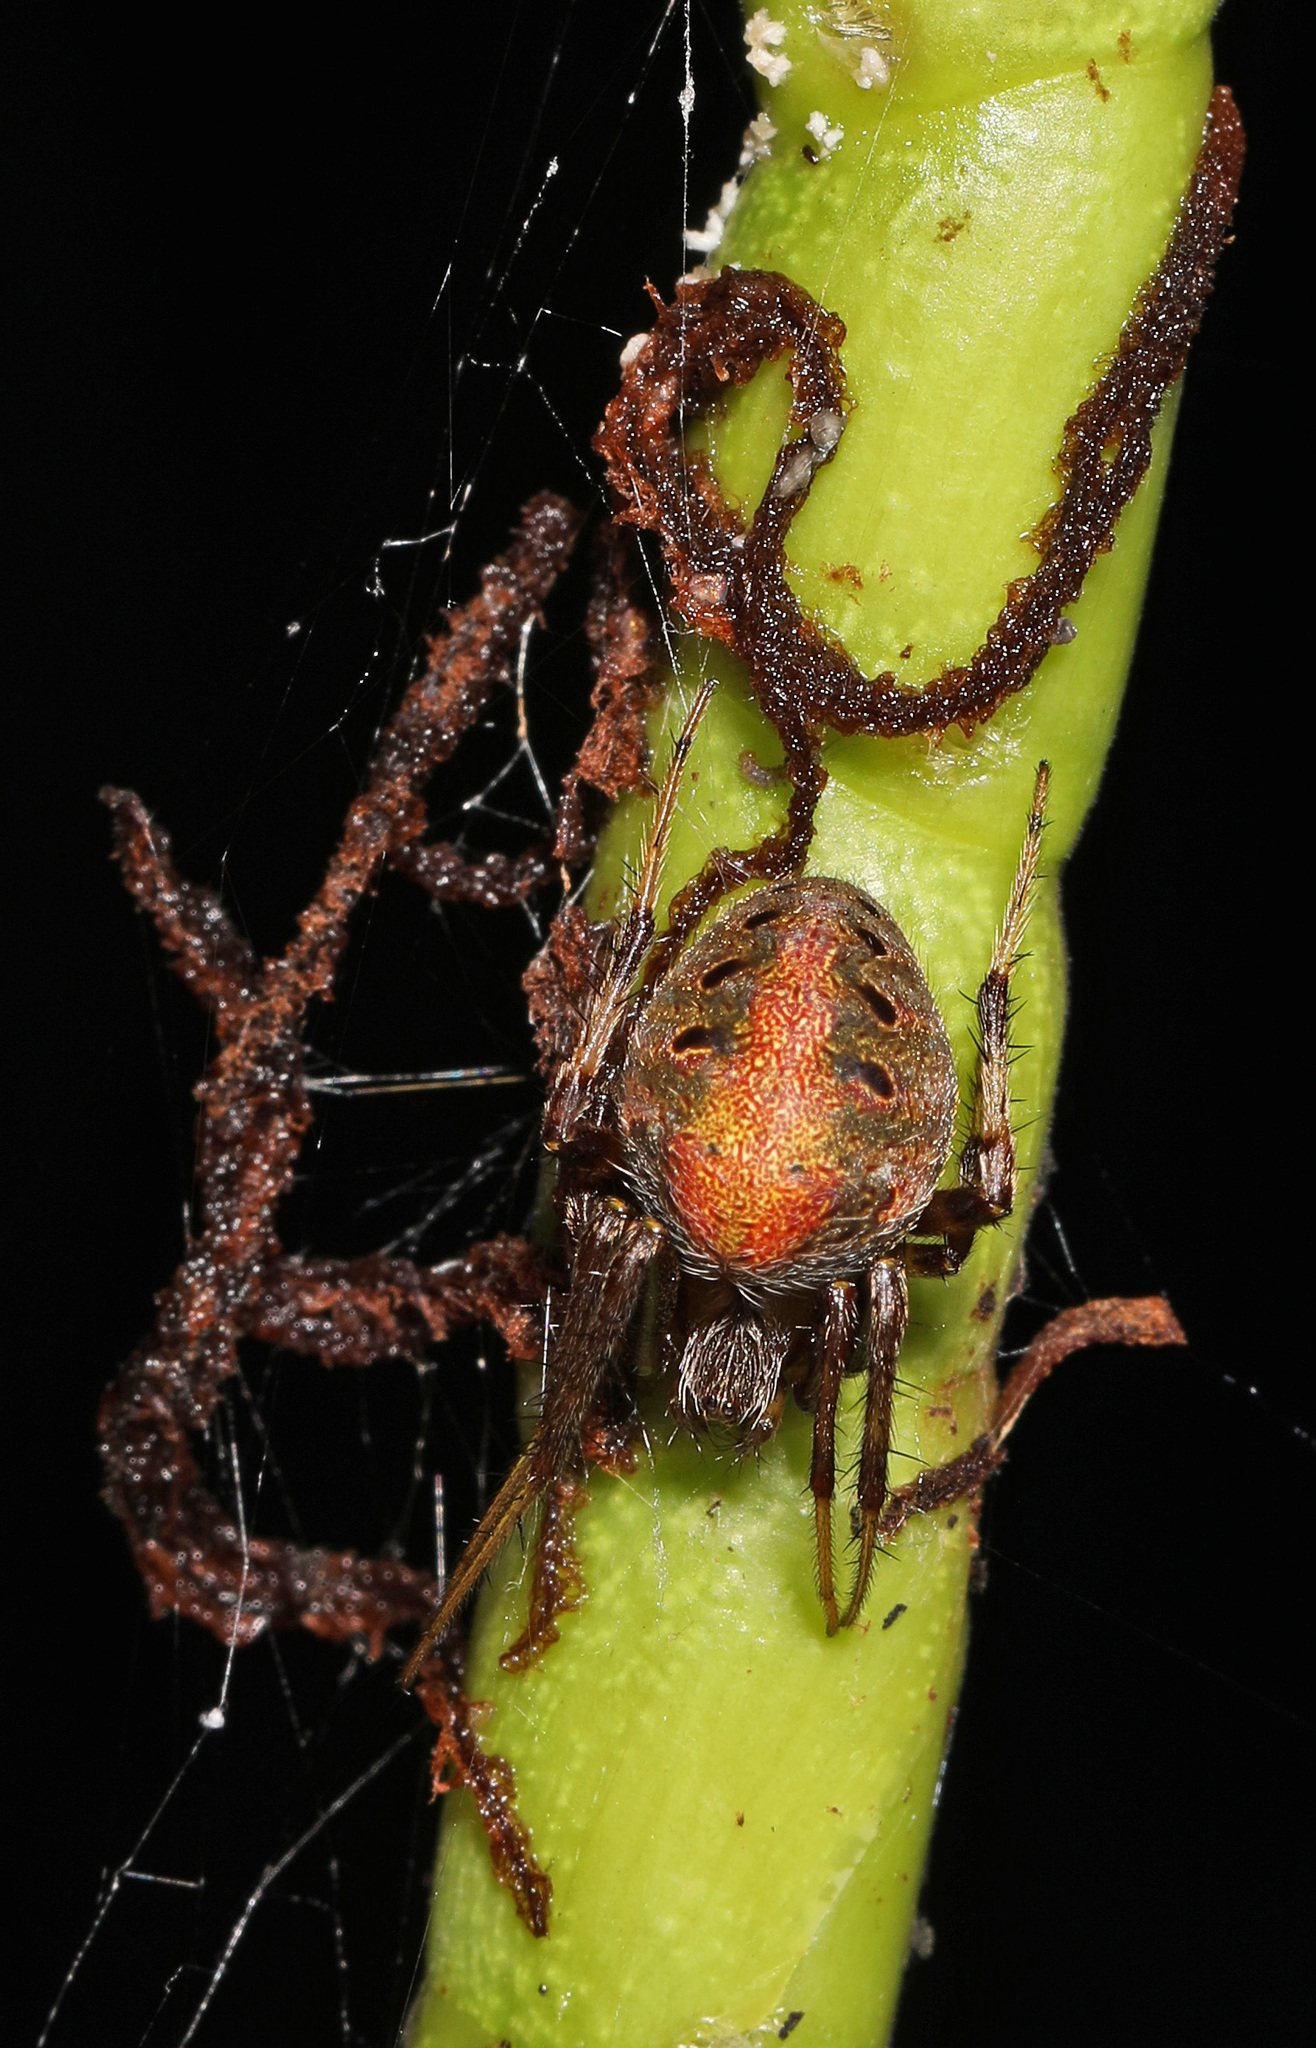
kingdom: Animalia
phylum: Arthropoda
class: Arachnida
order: Araneae
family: Araneidae
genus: Neoscona
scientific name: Neoscona arabesca
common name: Orb weavers
